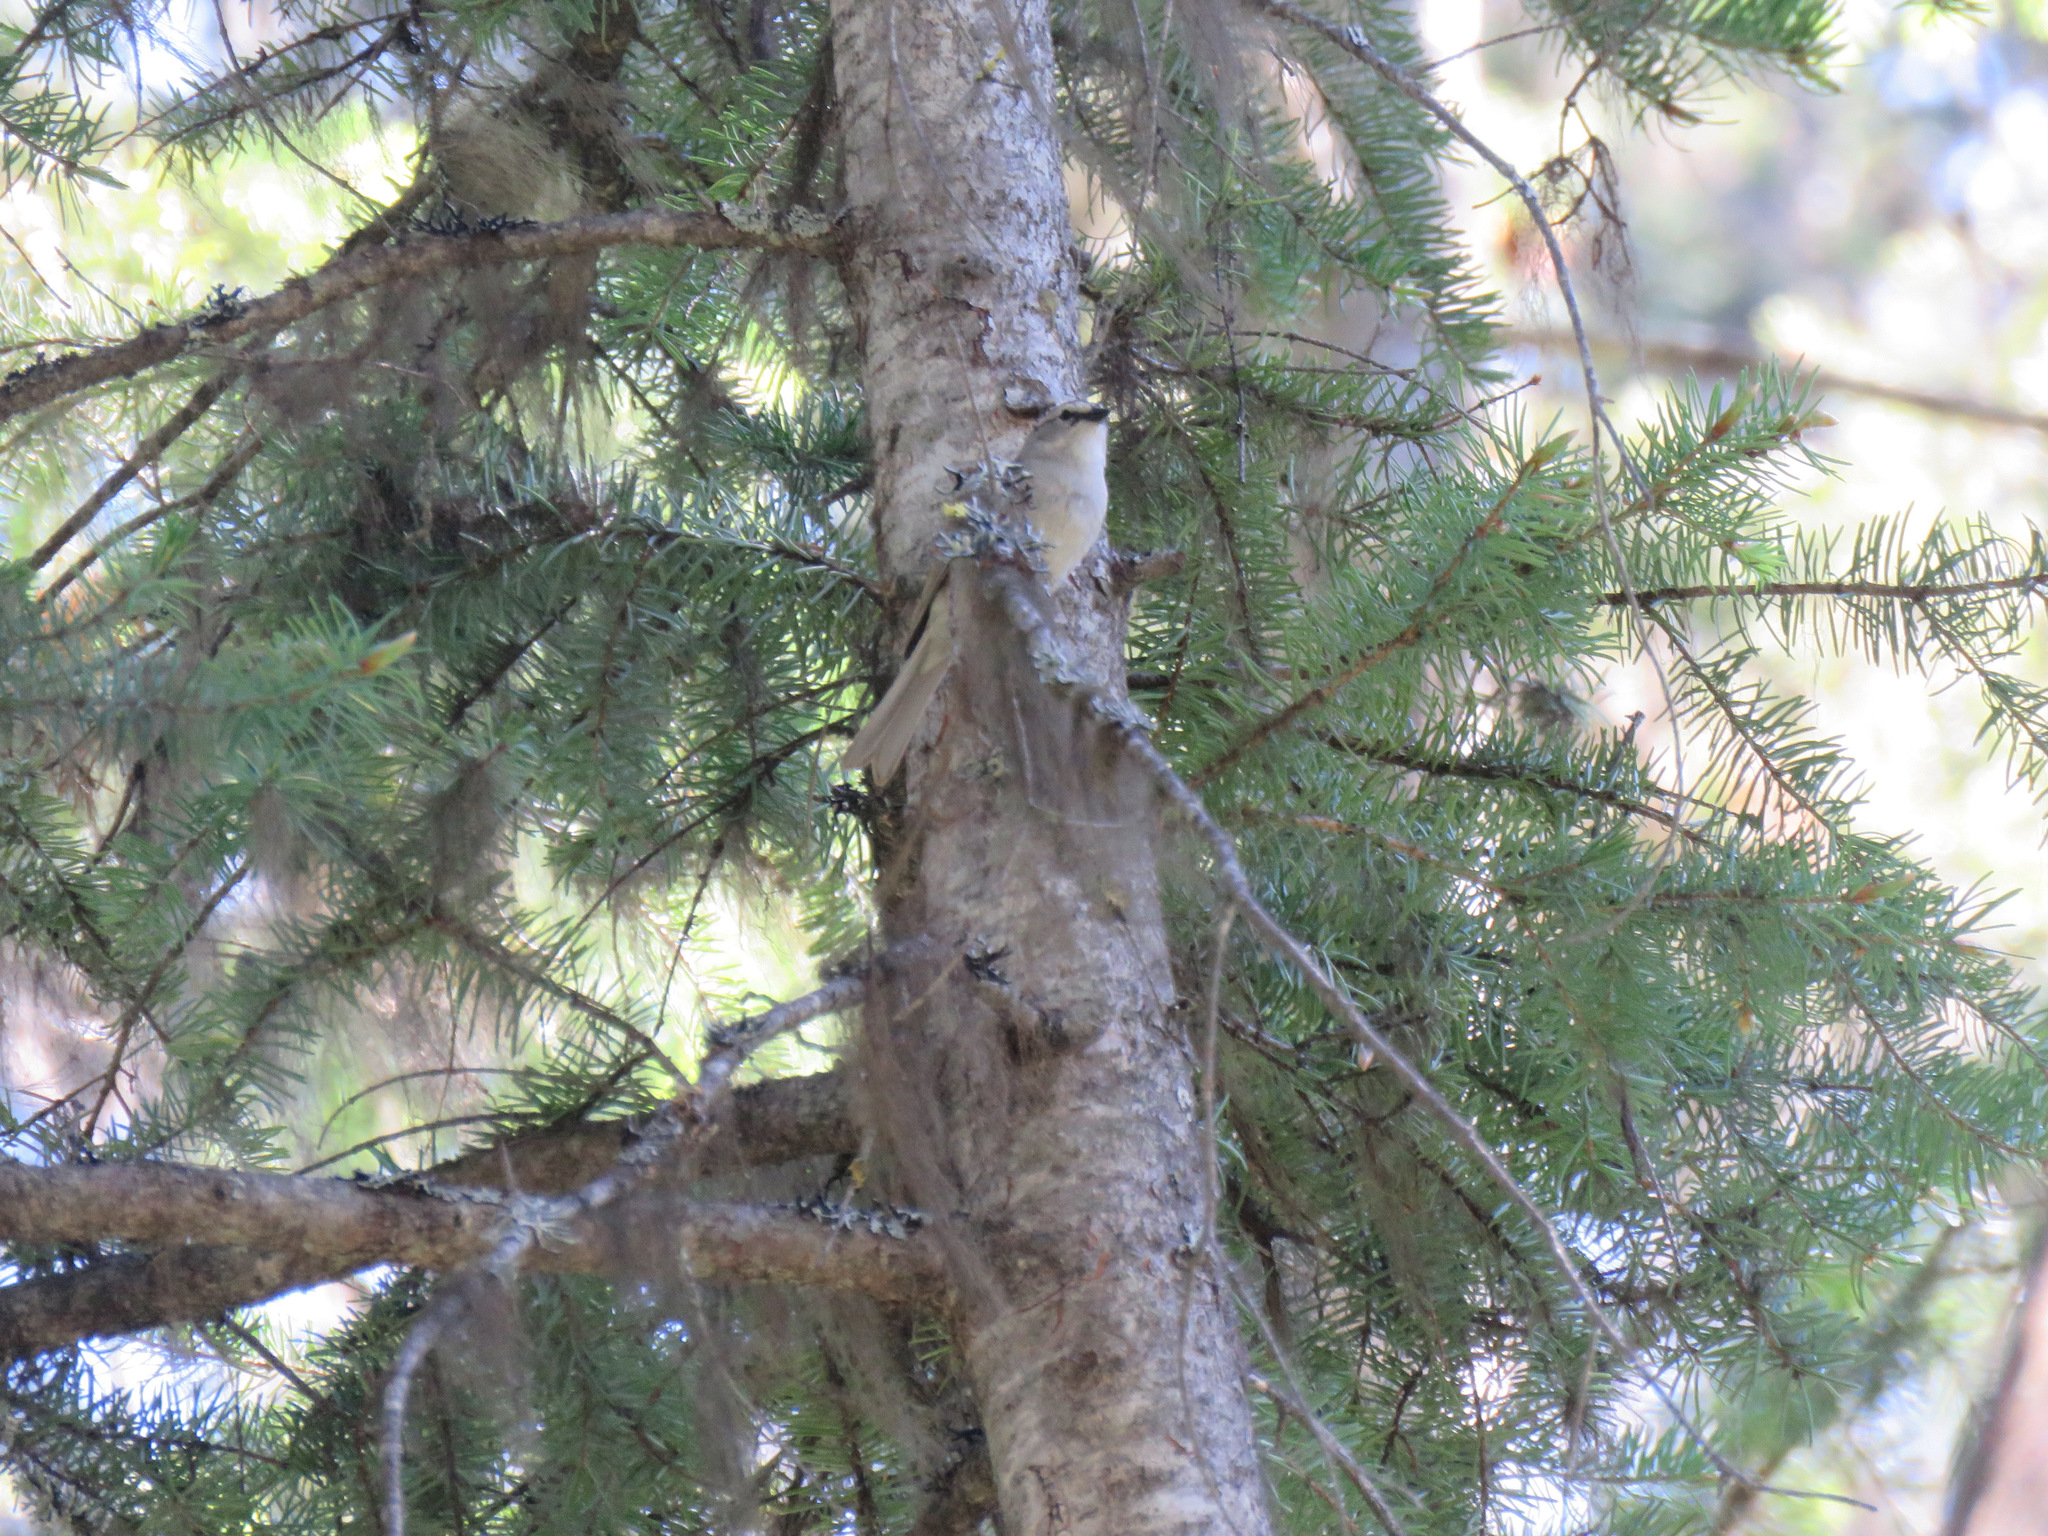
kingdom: Animalia
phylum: Chordata
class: Aves
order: Passeriformes
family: Passerellidae
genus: Spizella
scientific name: Spizella passerina
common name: Chipping sparrow
